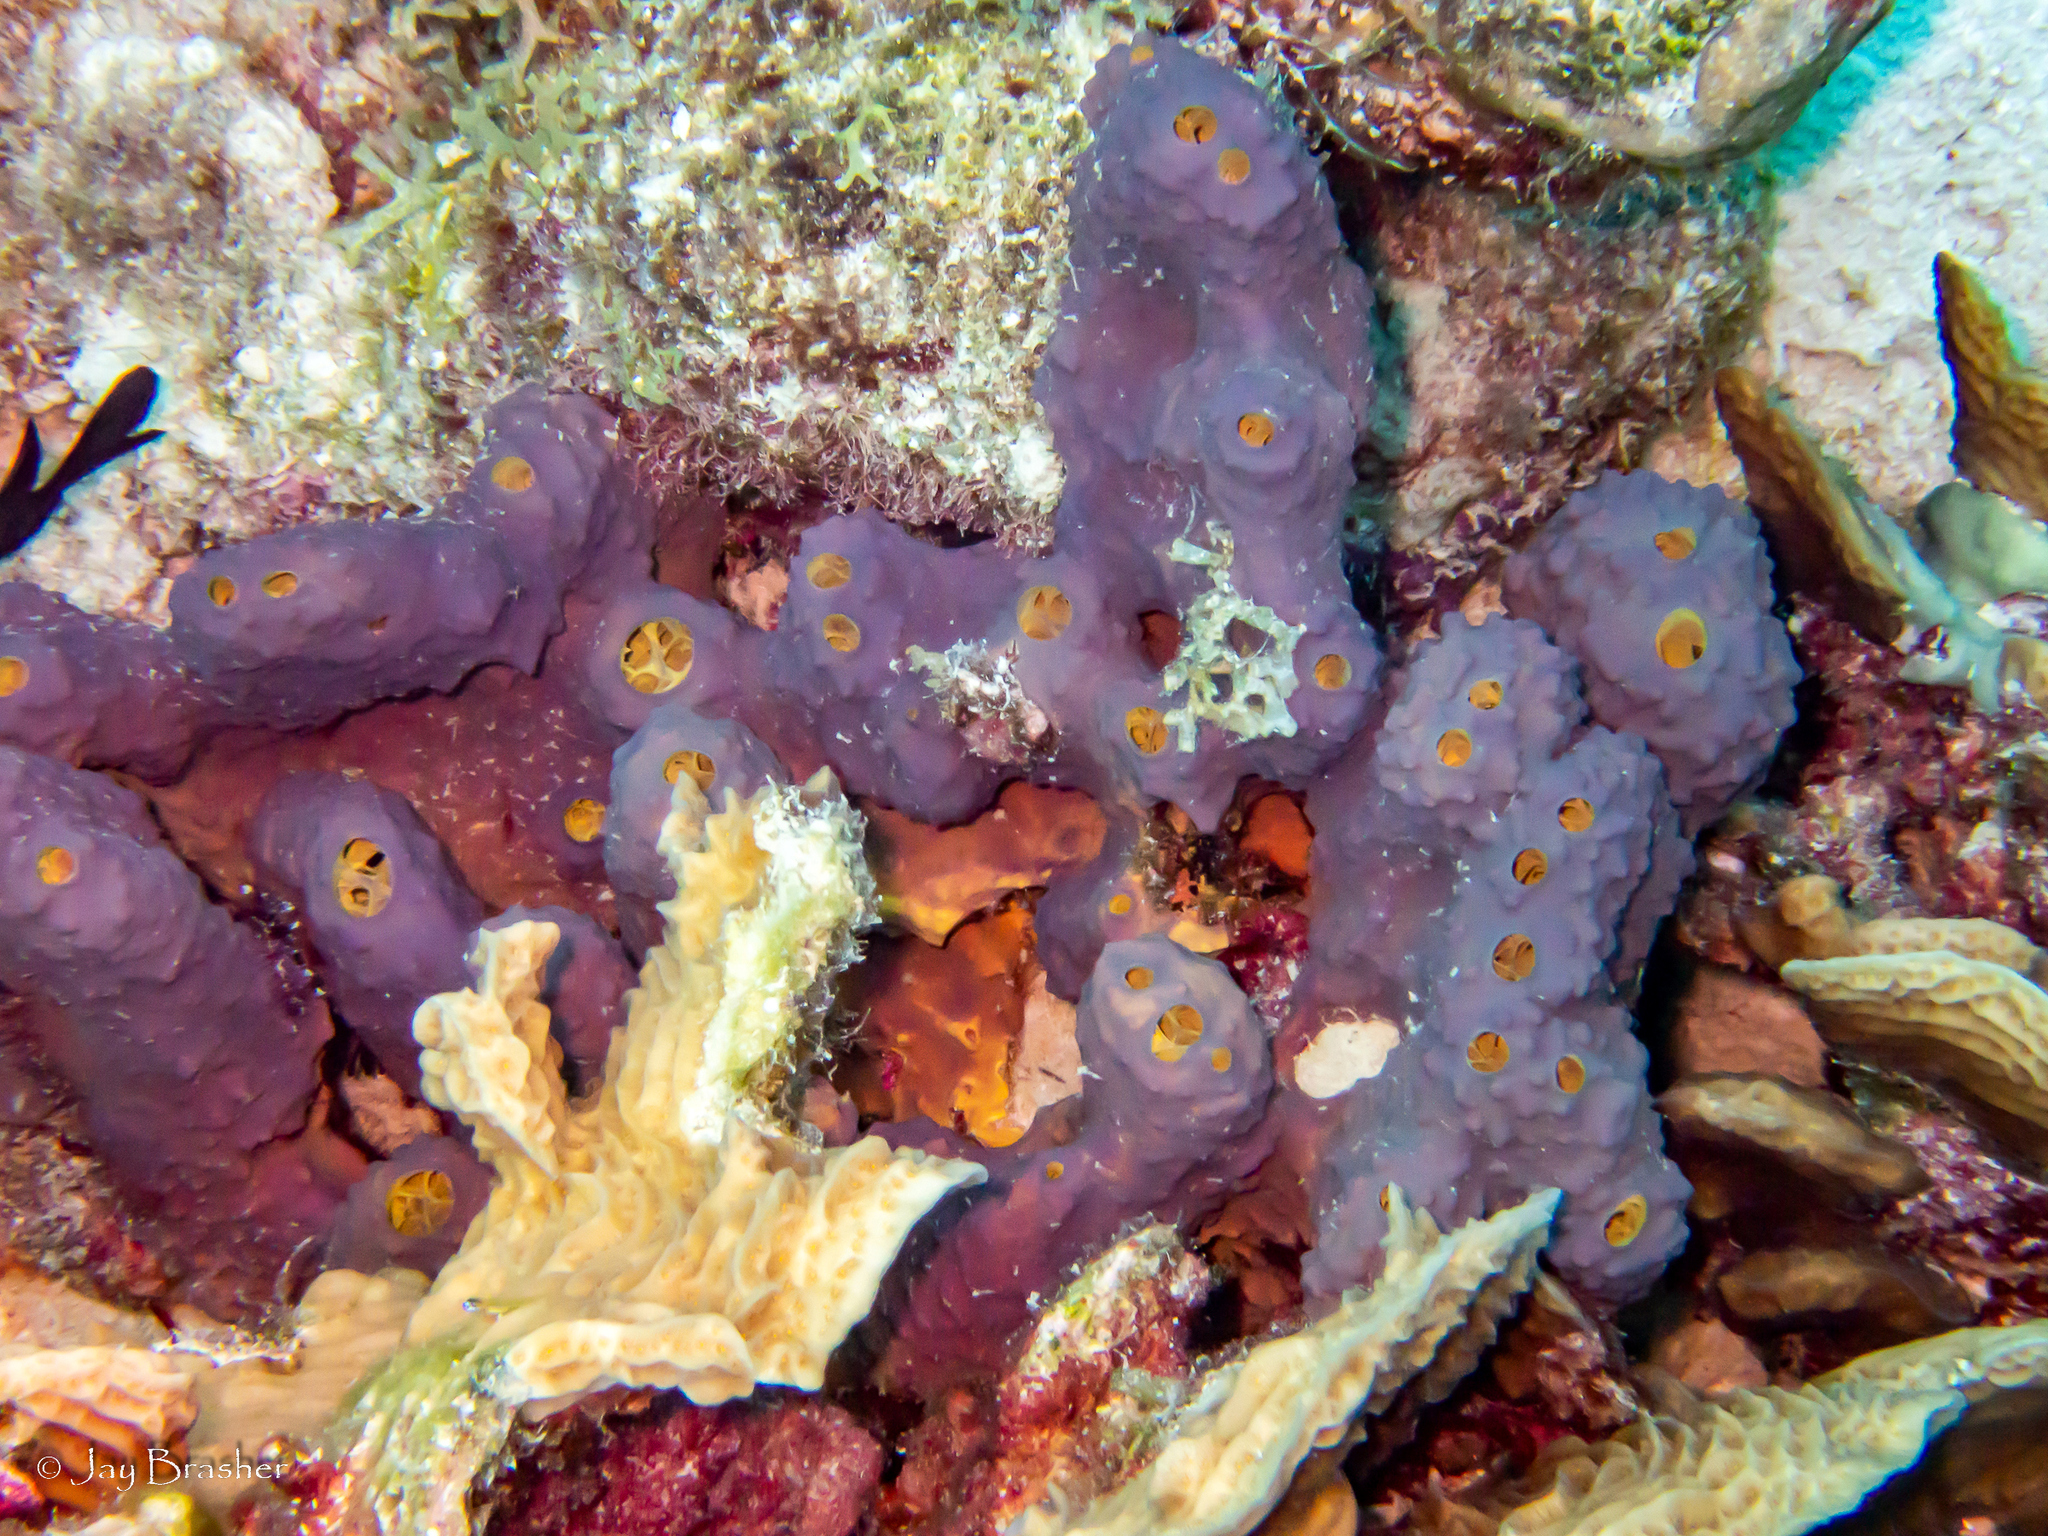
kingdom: Animalia
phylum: Porifera
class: Demospongiae
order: Verongiida
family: Aplysinidae
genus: Aiolochroia
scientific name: Aiolochroia crassa
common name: Branching tube sponge
